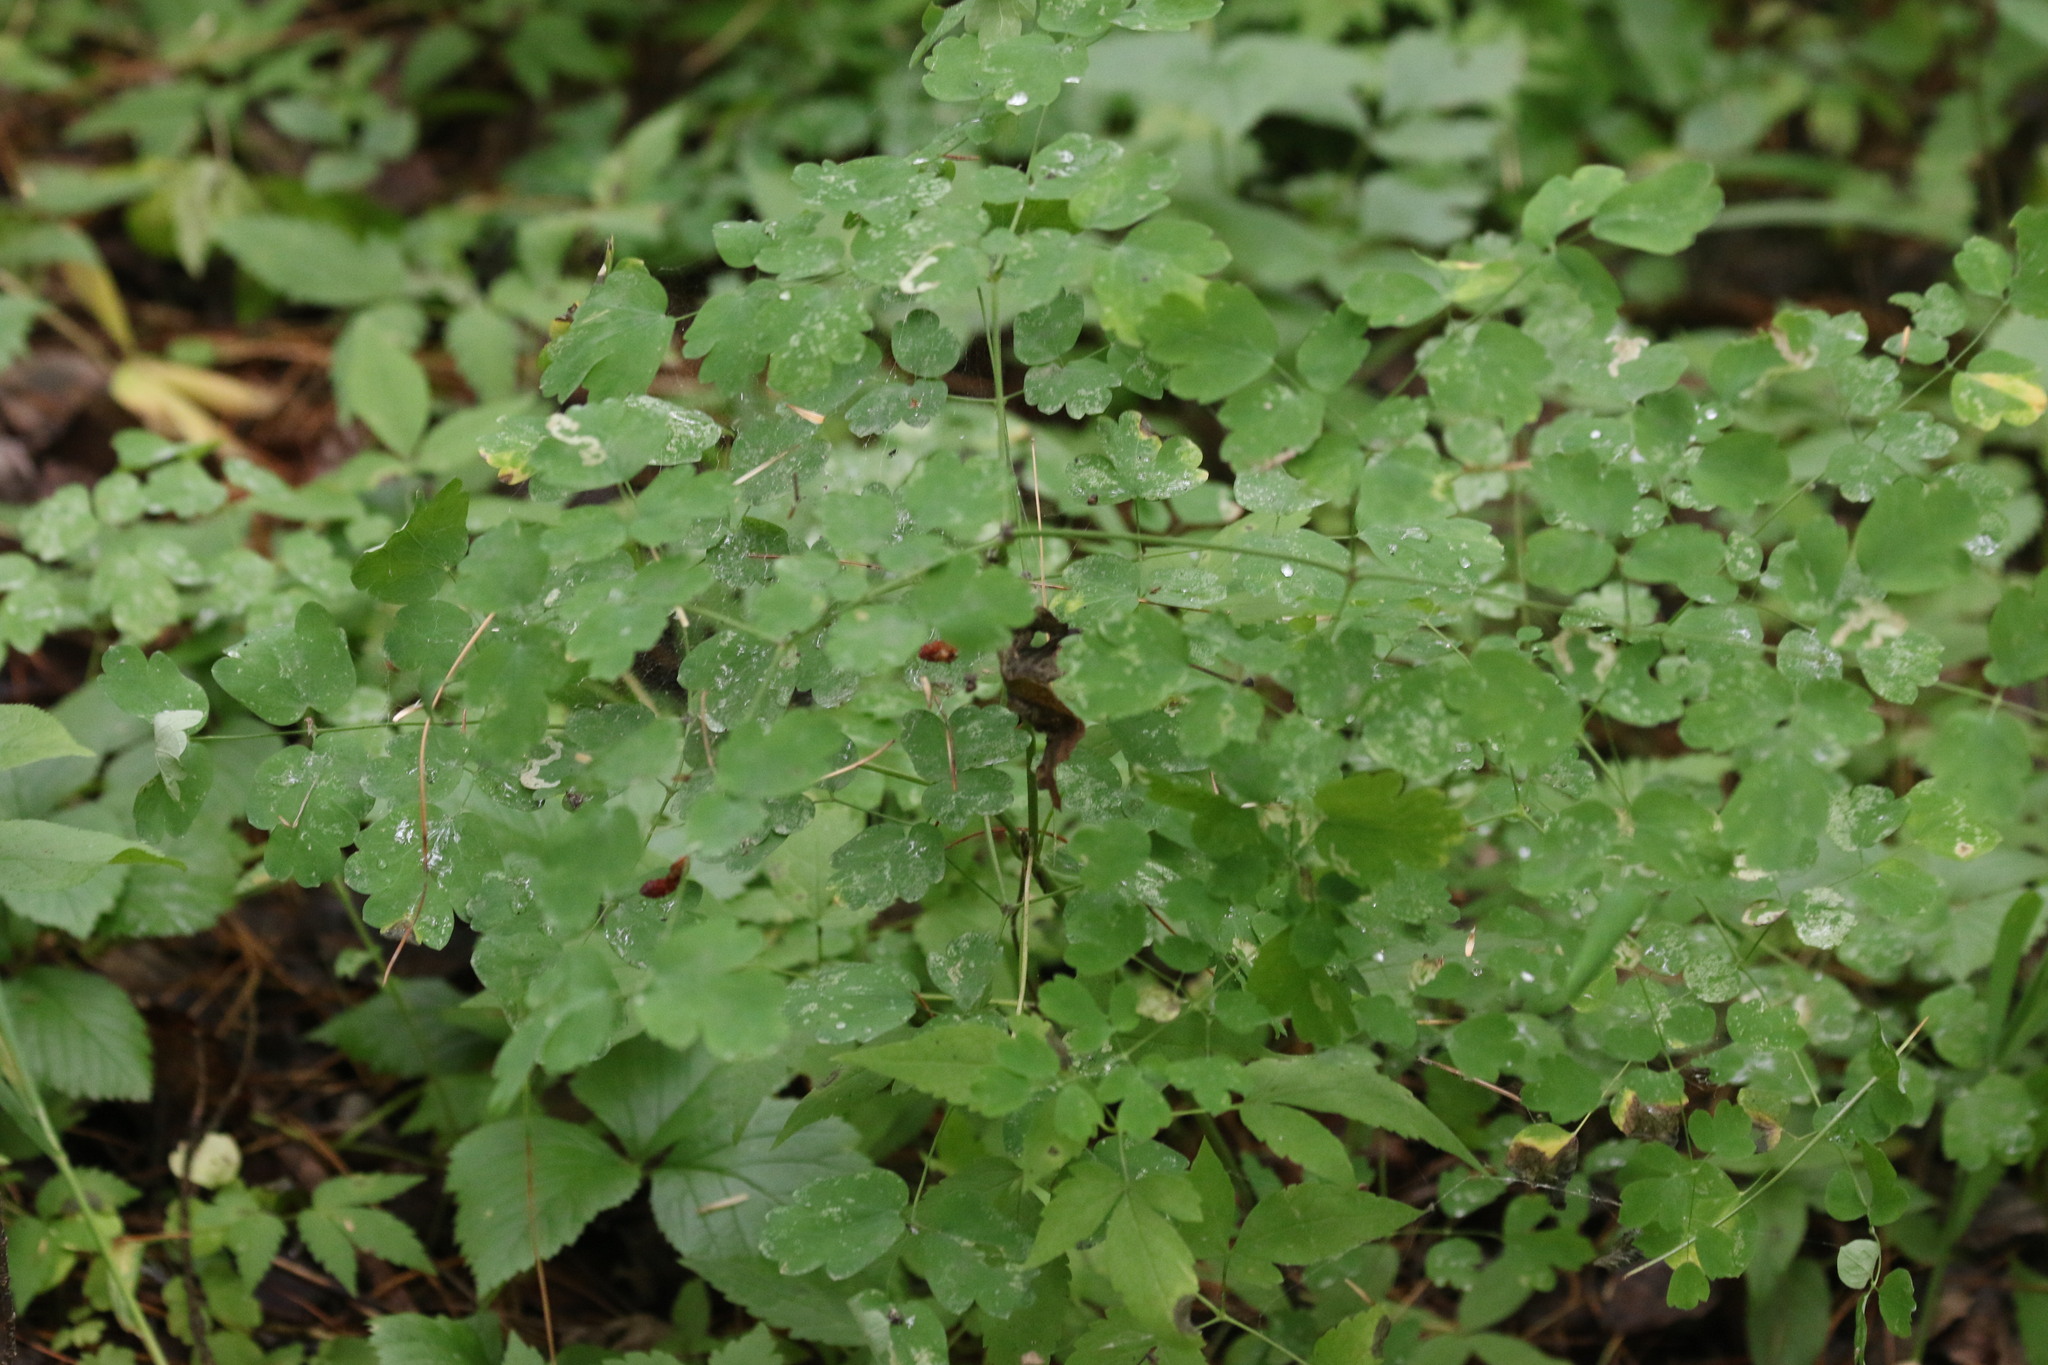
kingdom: Plantae
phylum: Tracheophyta
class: Magnoliopsida
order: Ranunculales
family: Ranunculaceae
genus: Thalictrum
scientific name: Thalictrum minus
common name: Lesser meadow-rue
